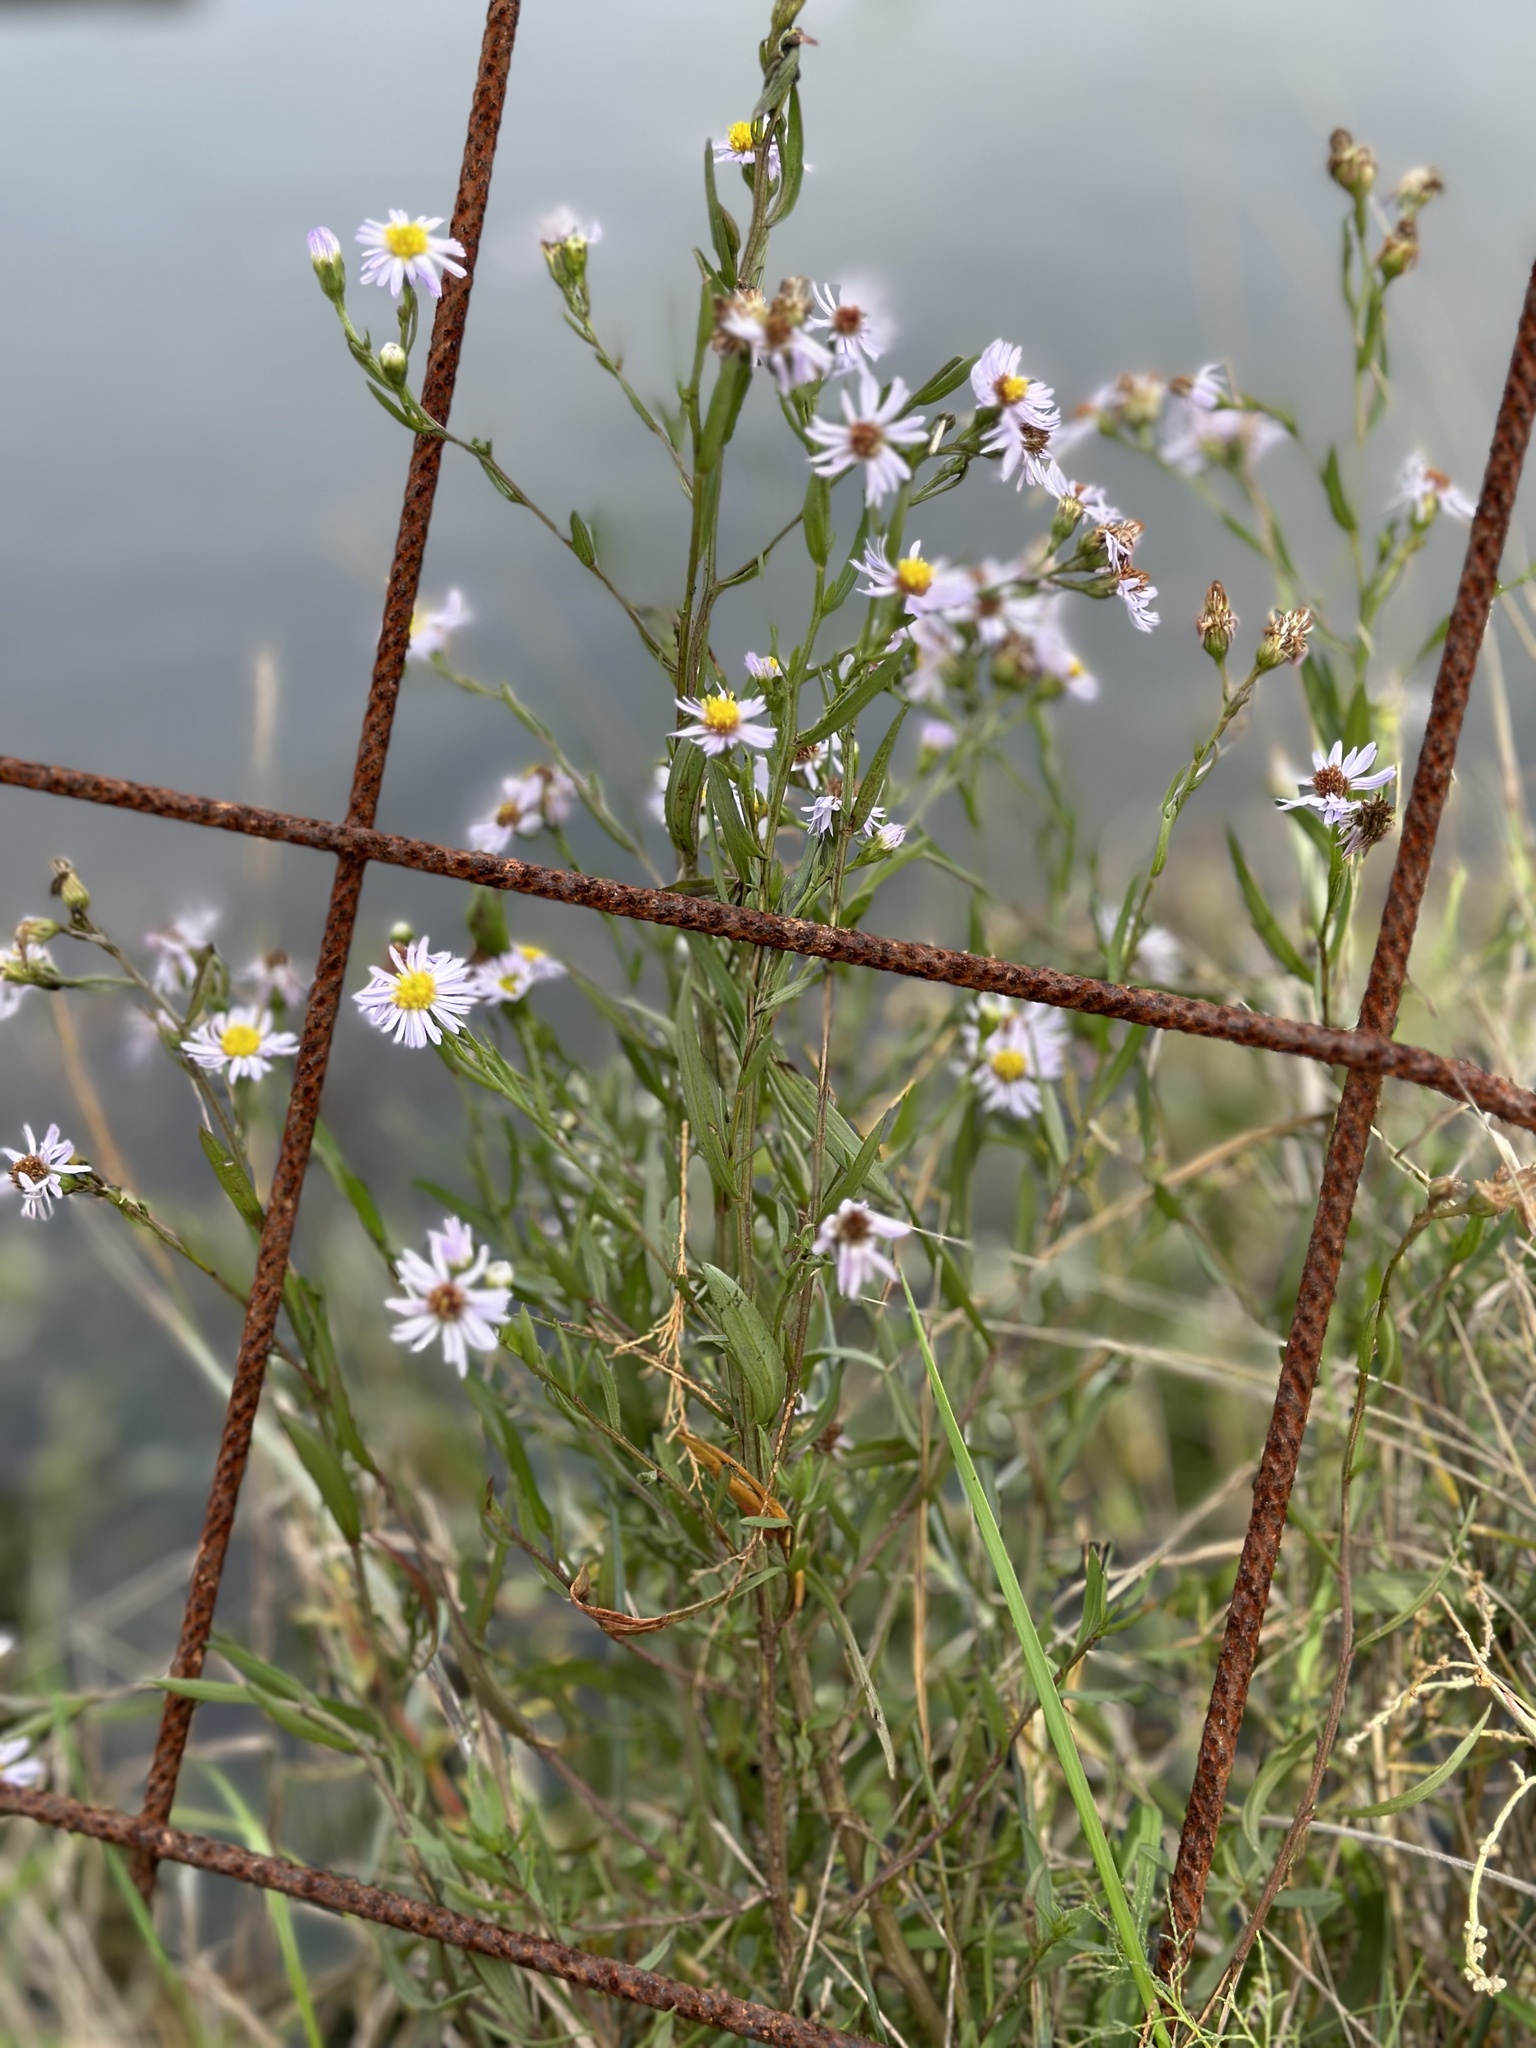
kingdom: Plantae
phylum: Tracheophyta
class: Magnoliopsida
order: Asterales
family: Asteraceae
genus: Tripolium
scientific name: Tripolium pannonicum
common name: Sea aster
